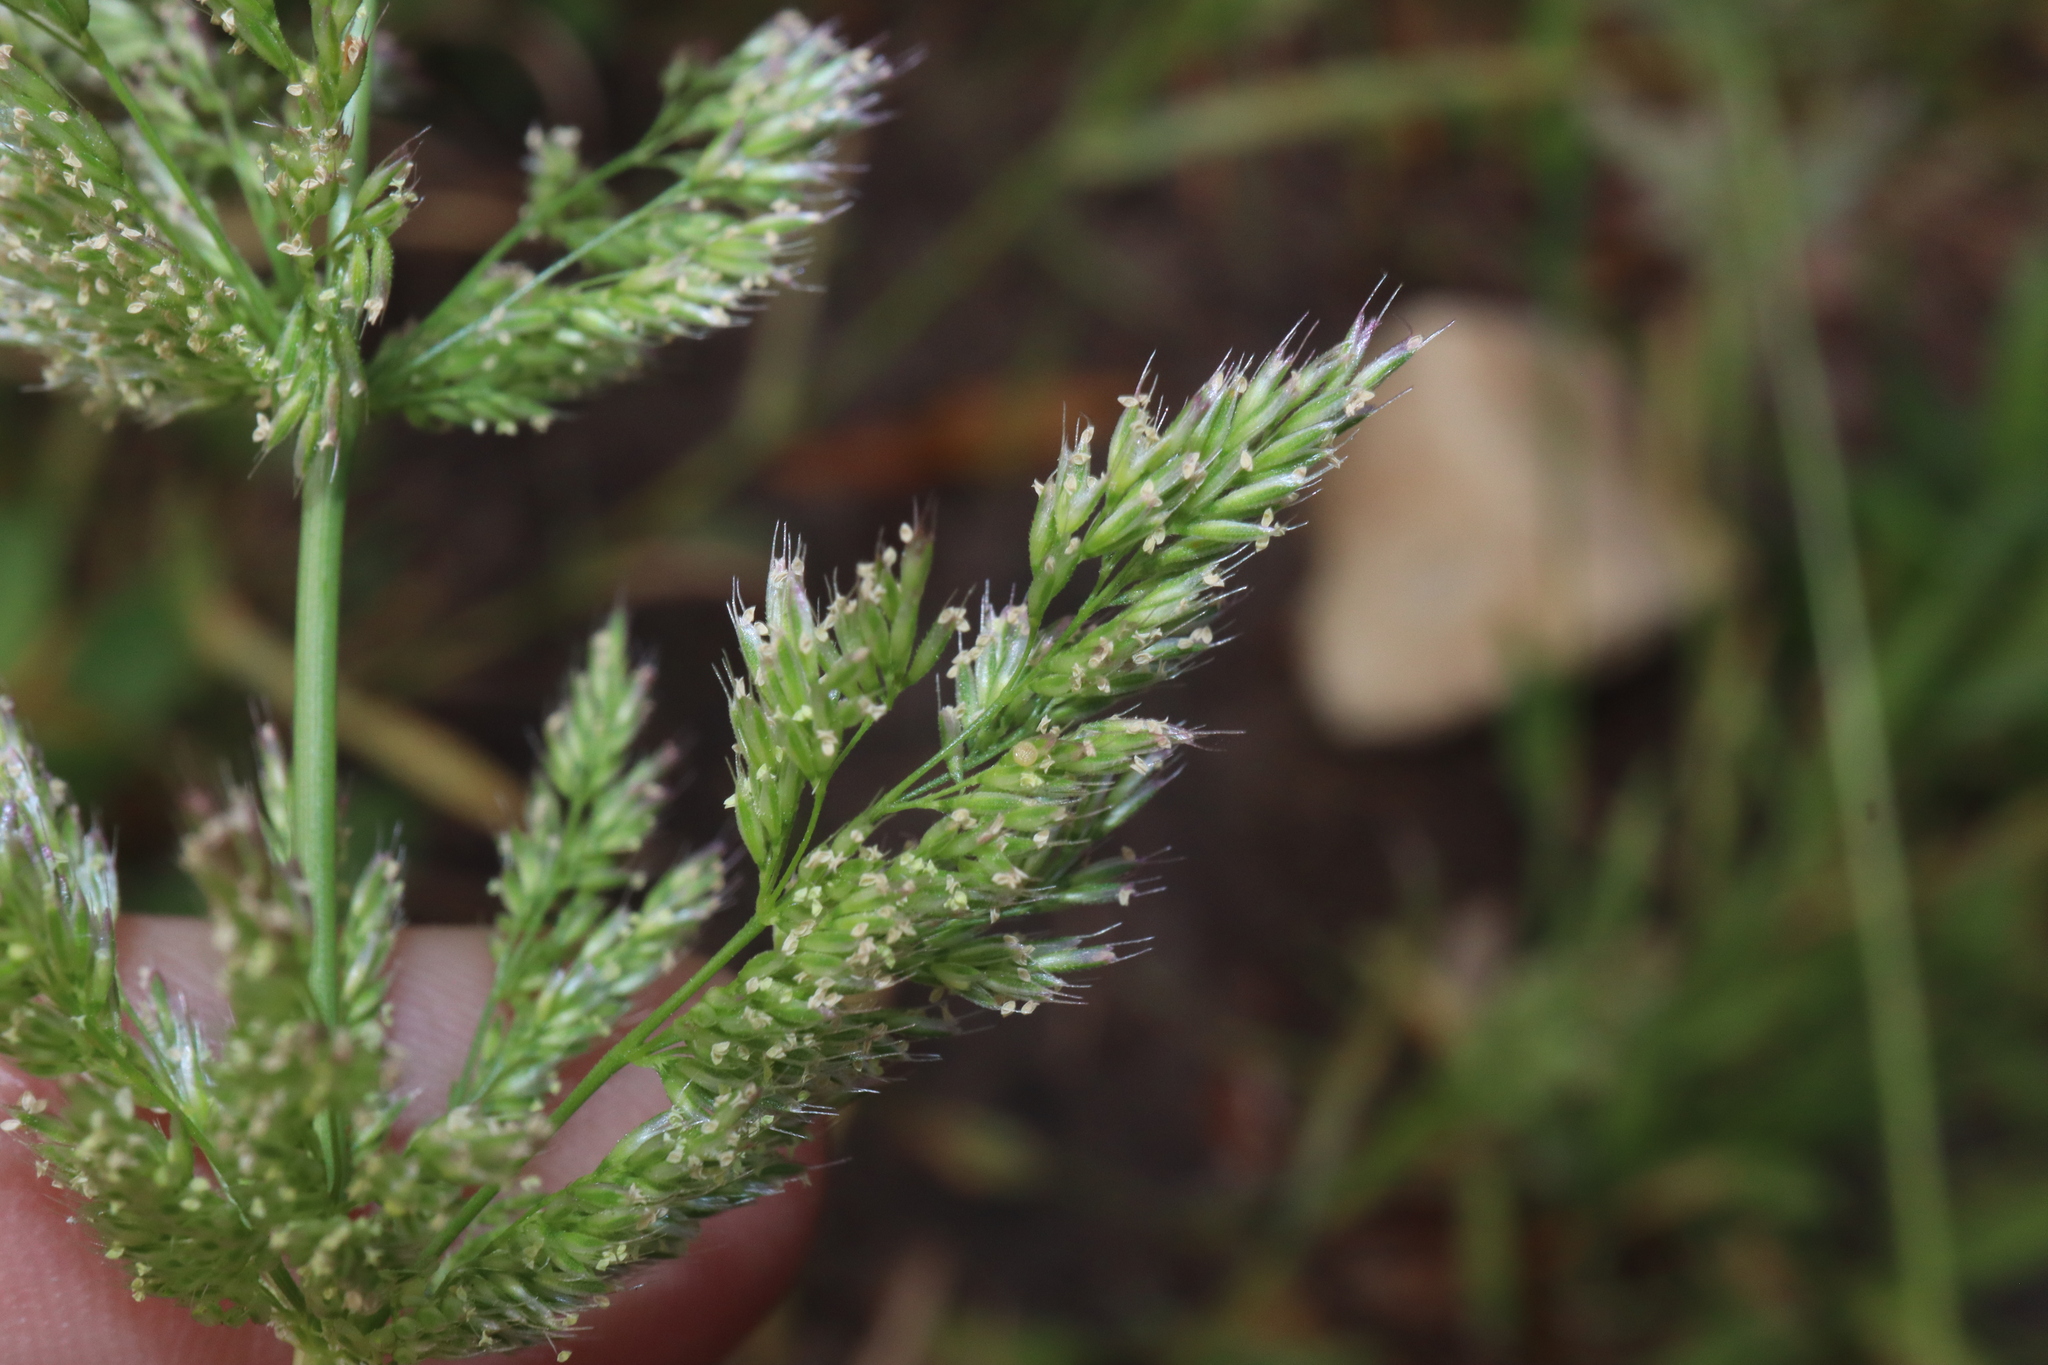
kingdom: Plantae
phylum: Tracheophyta
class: Liliopsida
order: Poales
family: Poaceae
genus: Agropogon
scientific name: Agropogon lutosus
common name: Coast agropogon
